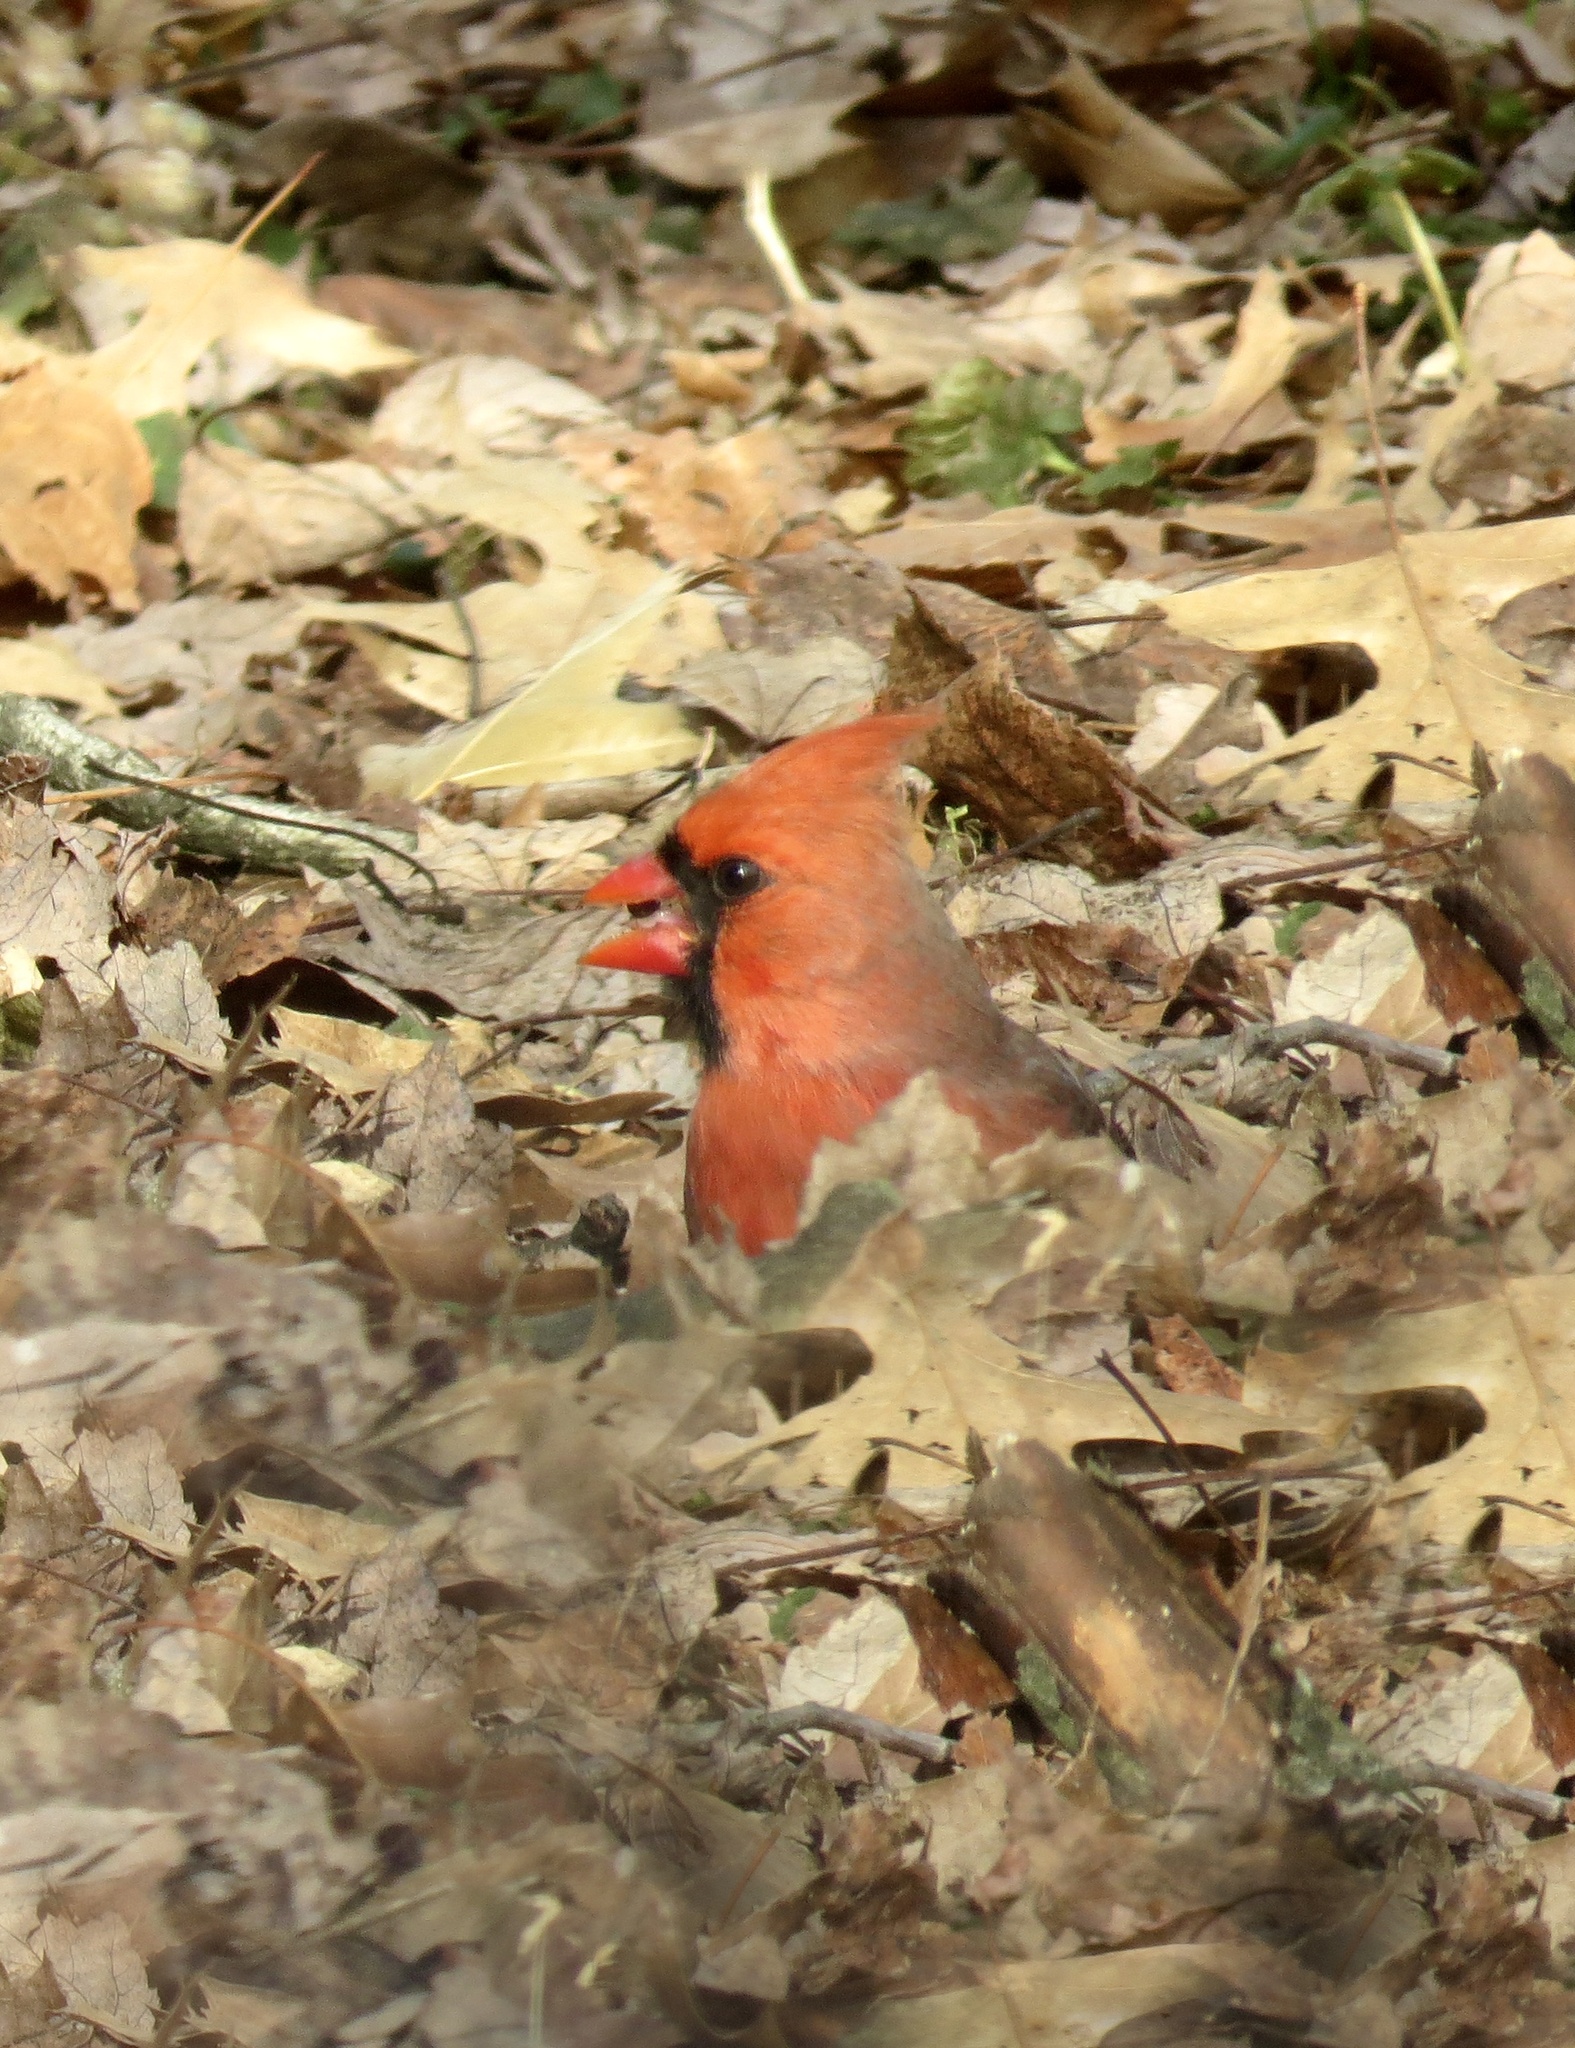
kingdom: Animalia
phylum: Chordata
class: Aves
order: Passeriformes
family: Cardinalidae
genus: Cardinalis
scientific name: Cardinalis cardinalis
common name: Northern cardinal
